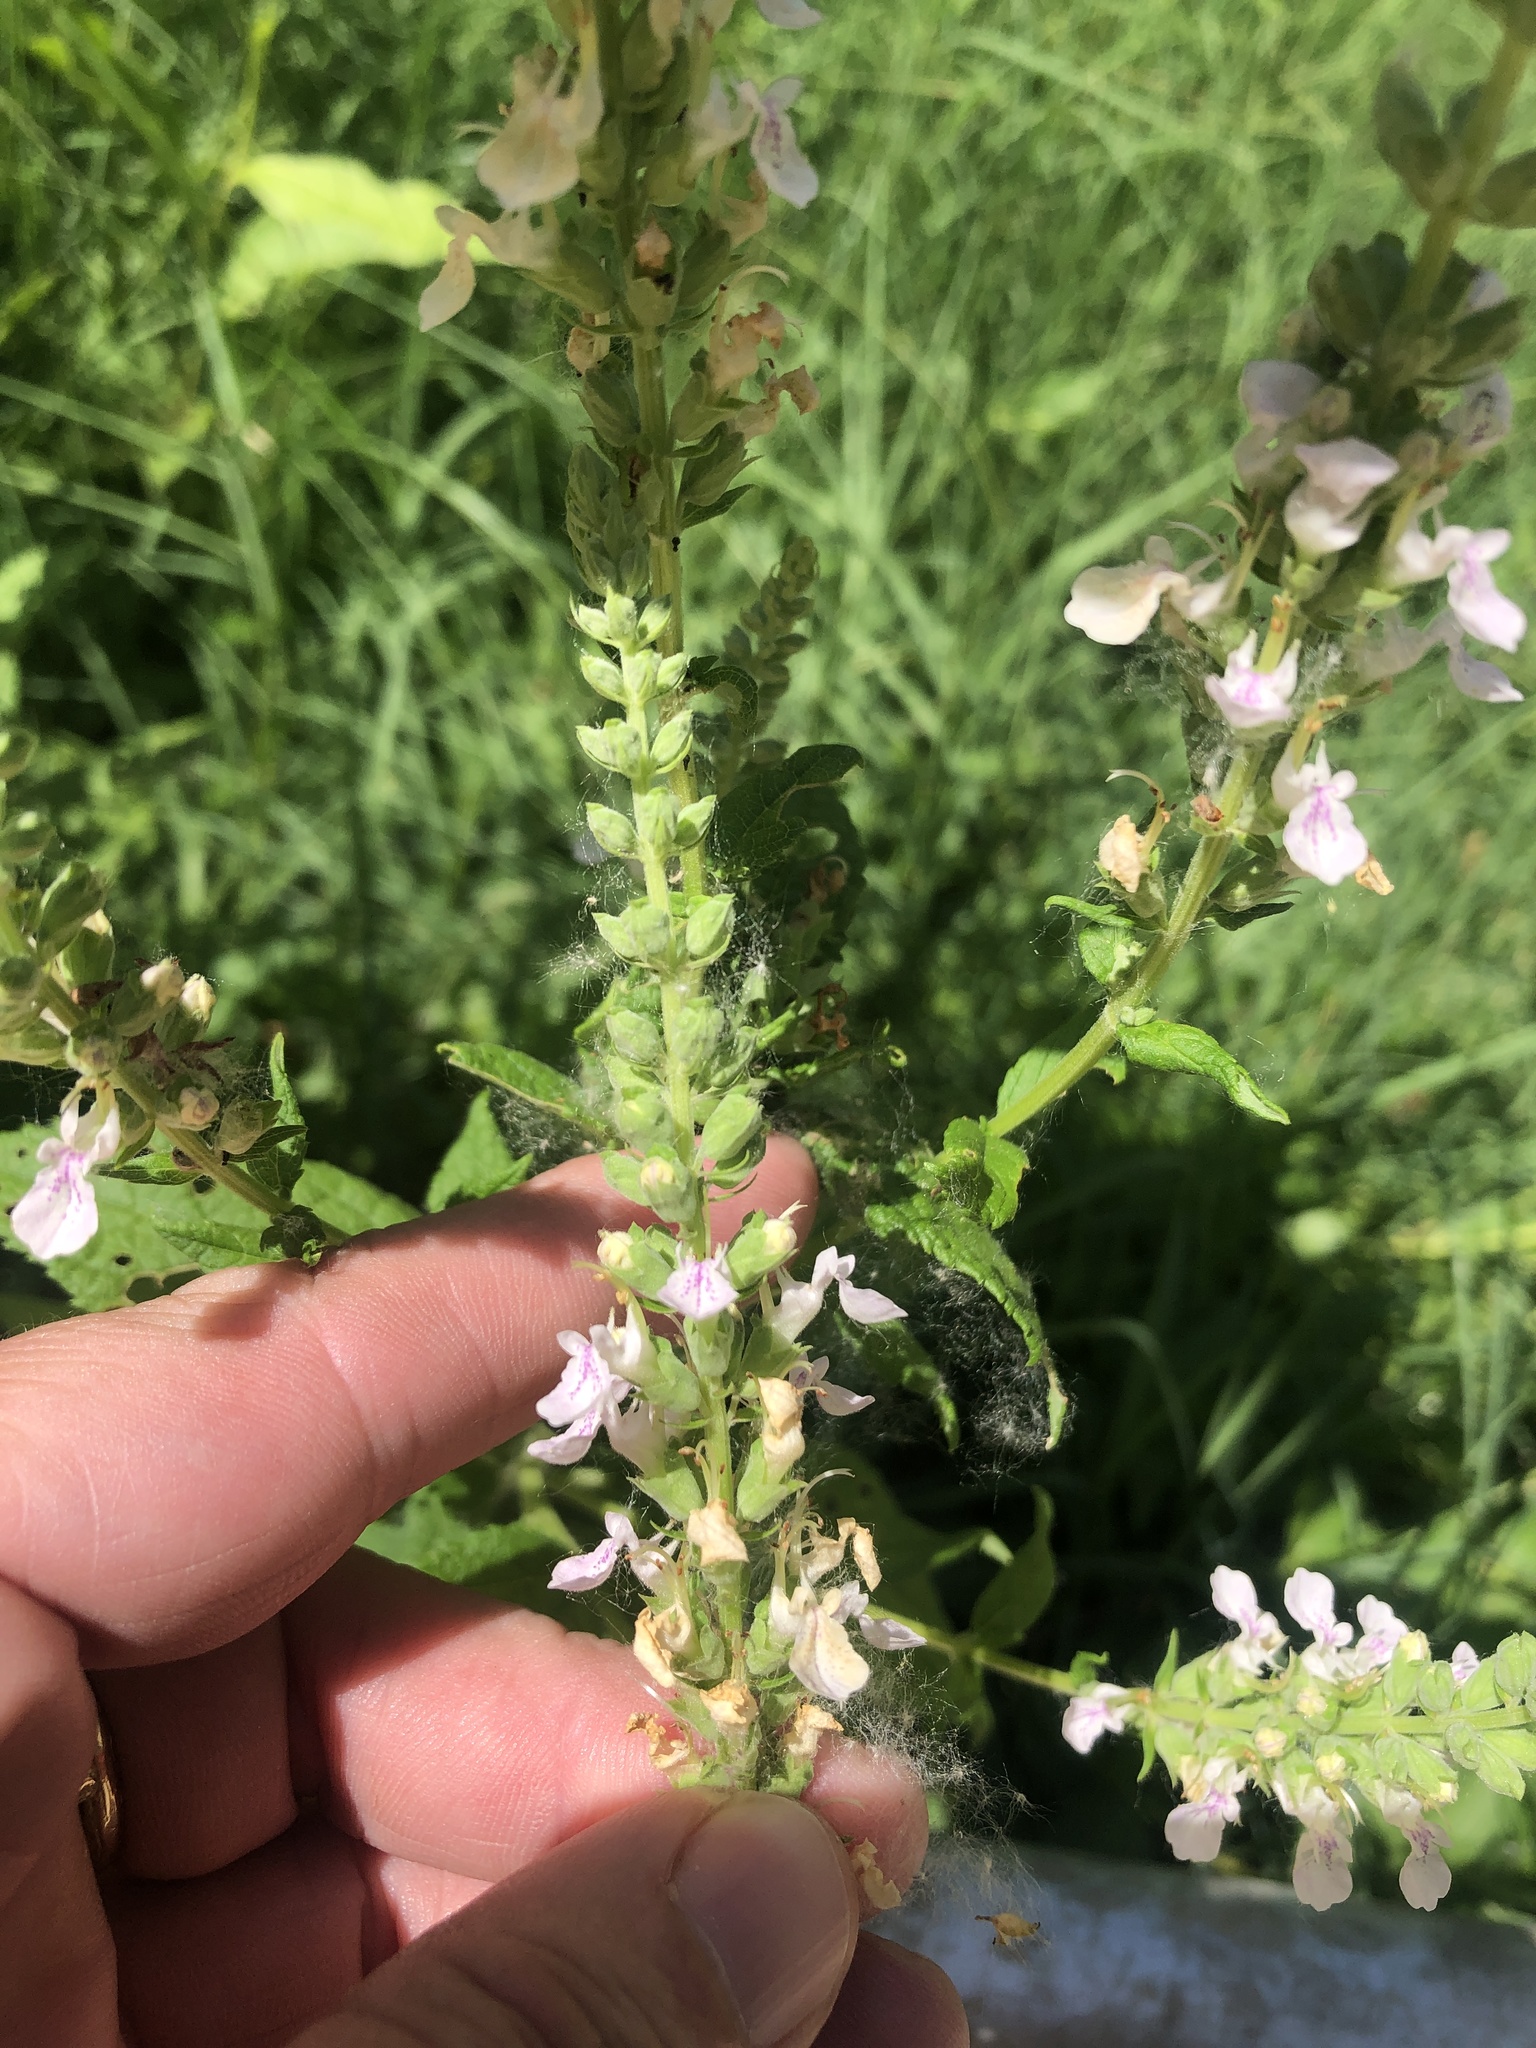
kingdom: Plantae
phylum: Tracheophyta
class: Magnoliopsida
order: Lamiales
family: Lamiaceae
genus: Teucrium
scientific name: Teucrium canadense
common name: American germander
